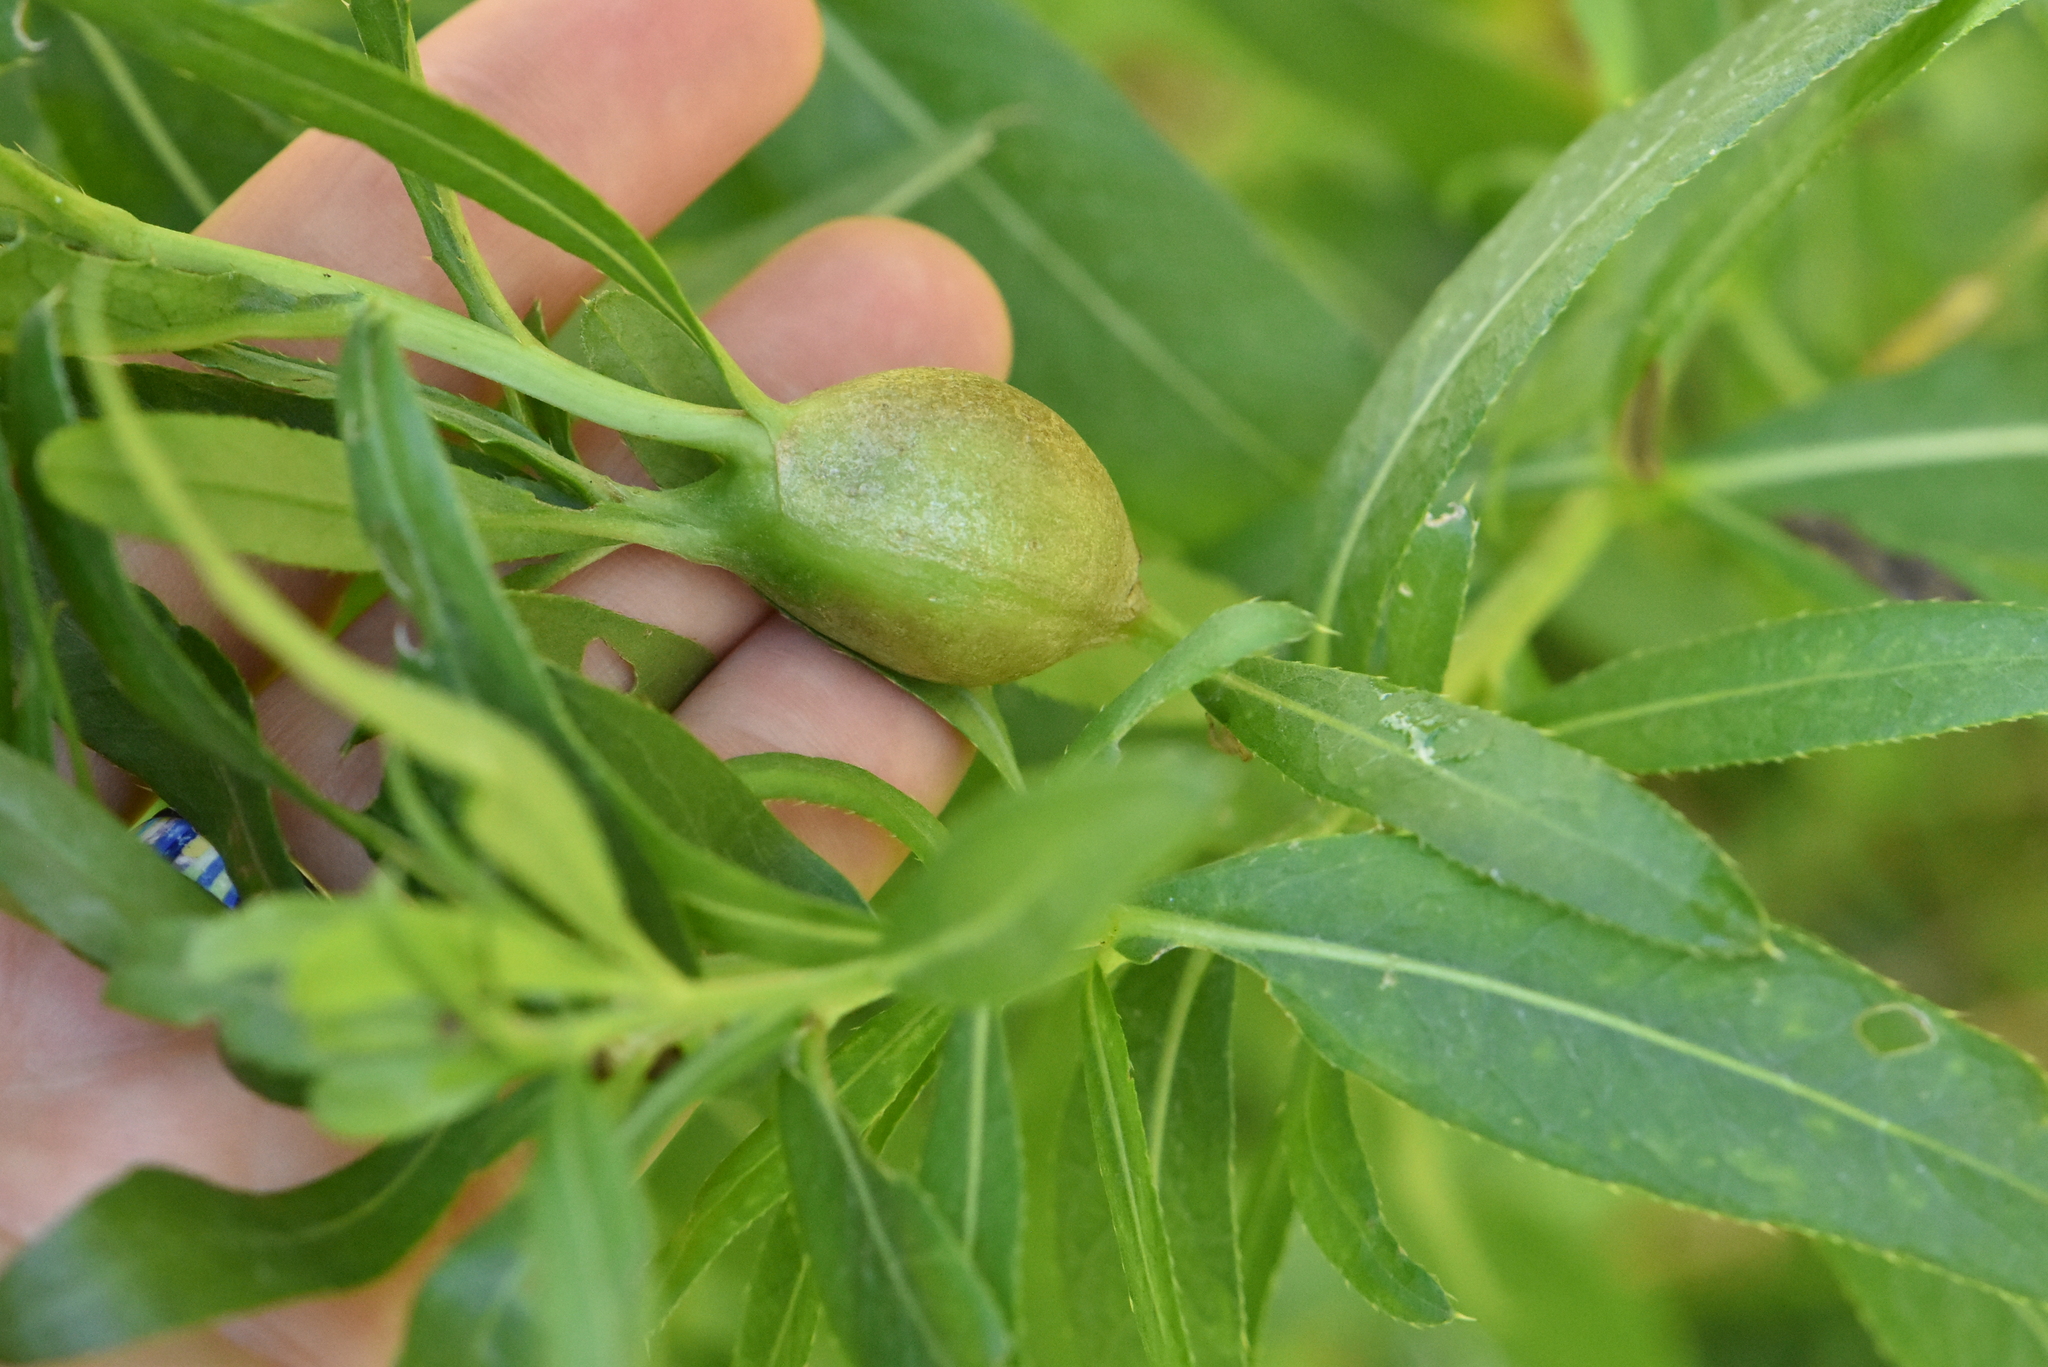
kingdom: Animalia
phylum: Arthropoda
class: Insecta
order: Diptera
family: Tephritidae
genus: Urophora
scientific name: Urophora cardui
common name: Fruit fly
